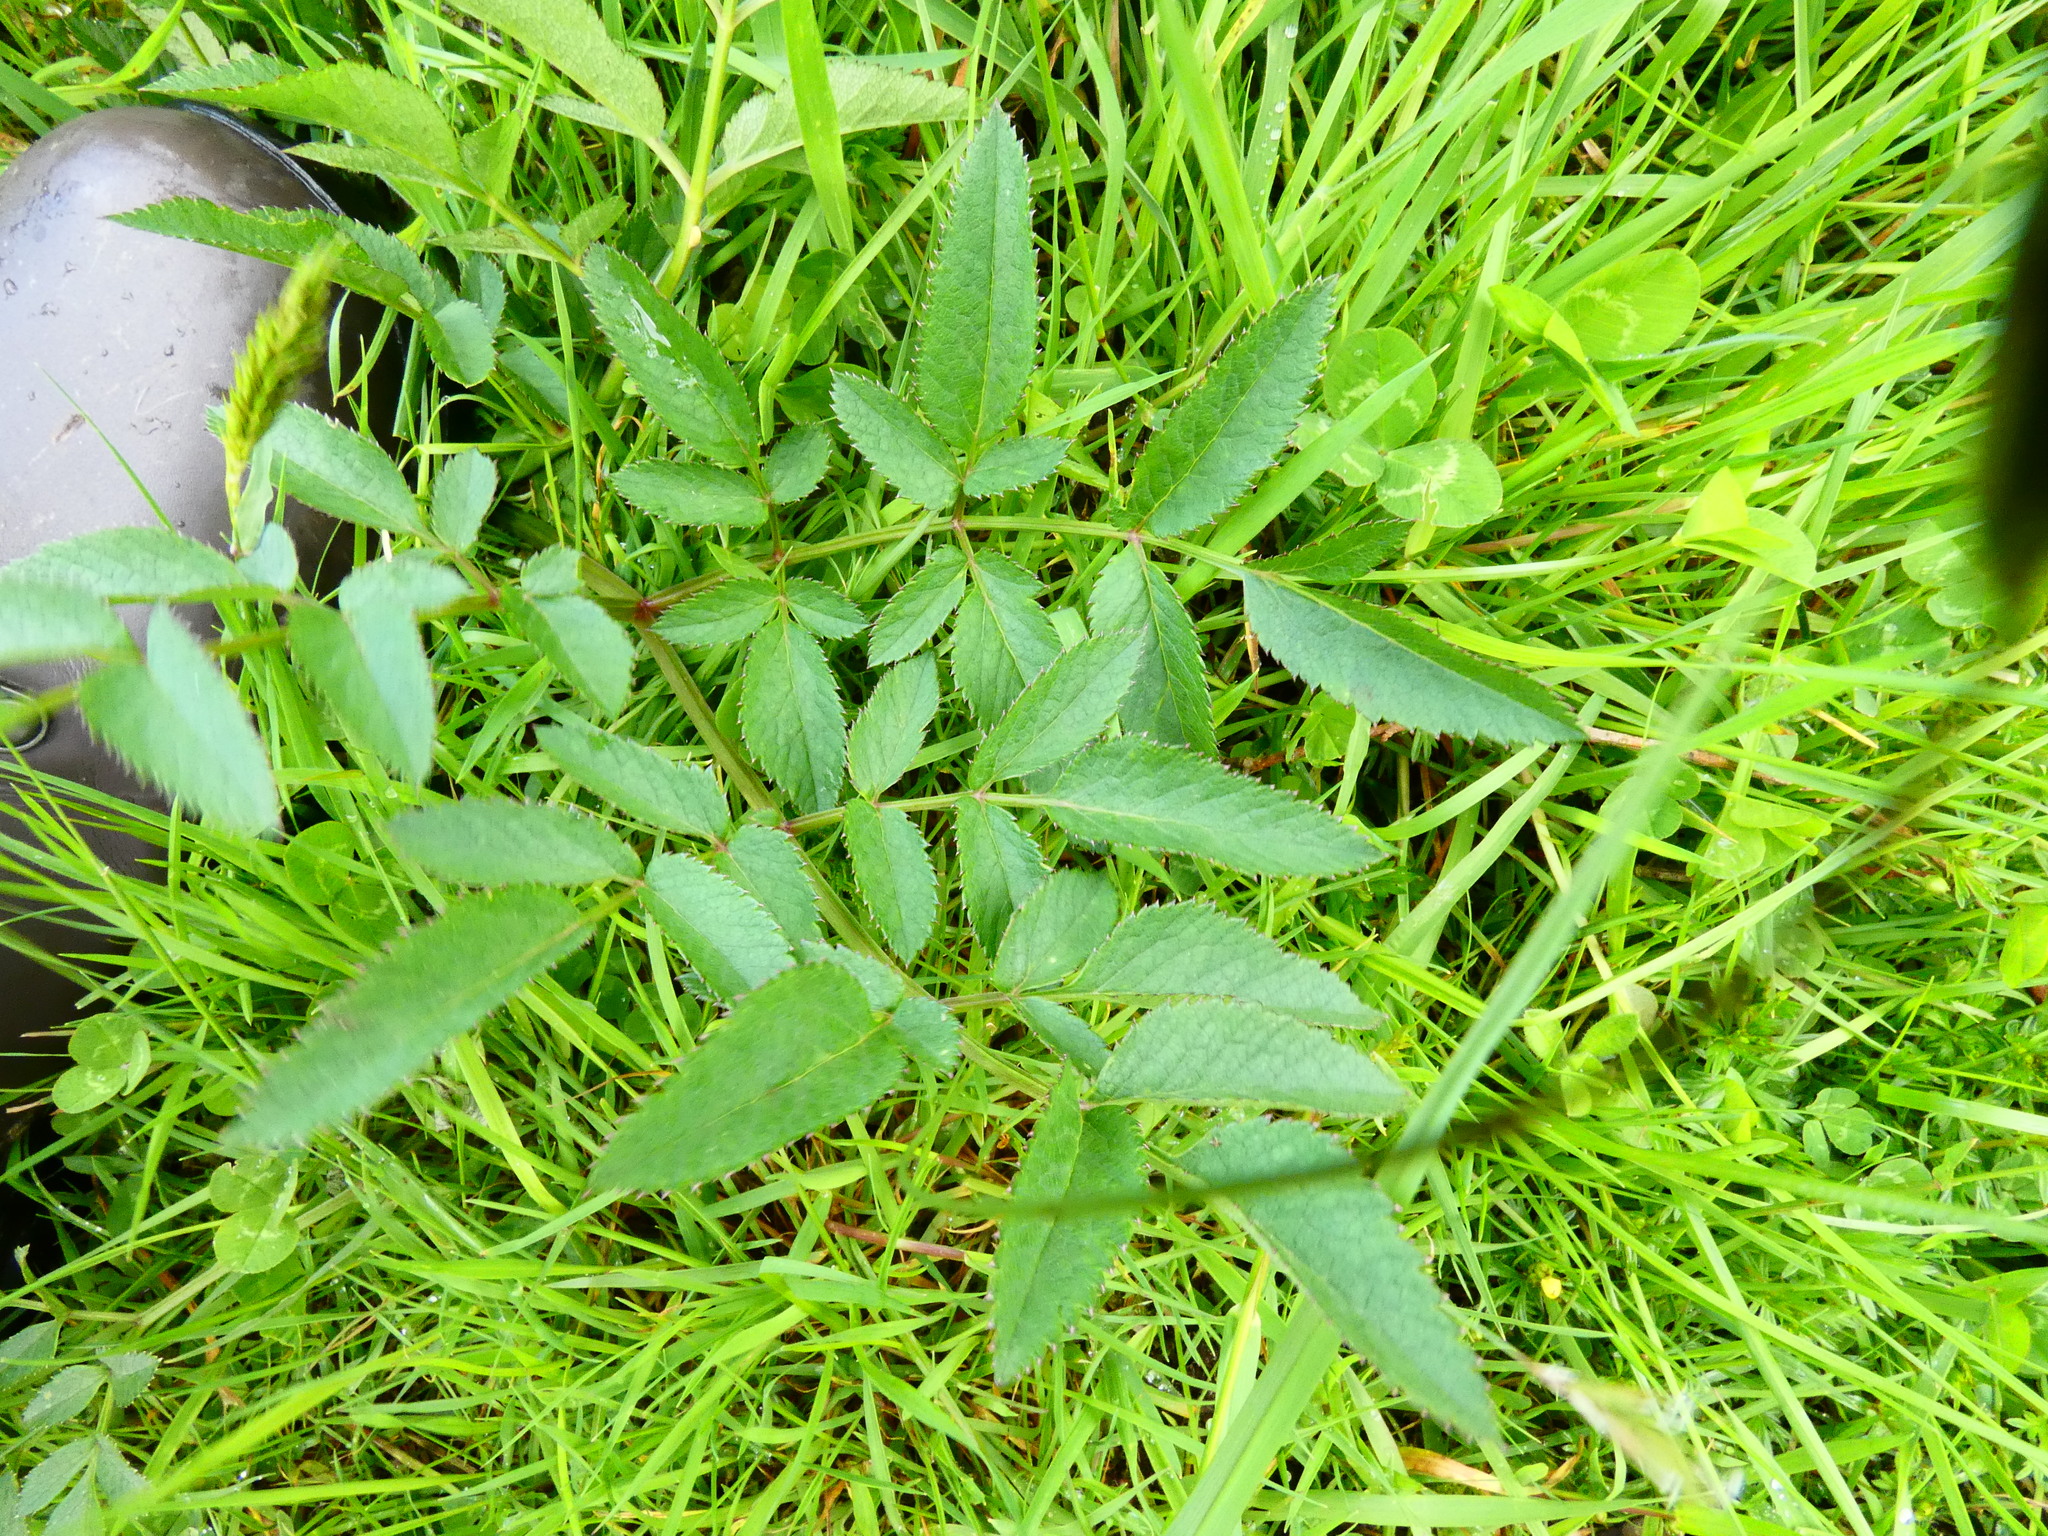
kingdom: Plantae
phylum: Tracheophyta
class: Magnoliopsida
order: Apiales
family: Apiaceae
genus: Angelica
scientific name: Angelica sylvestris
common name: Wild angelica
